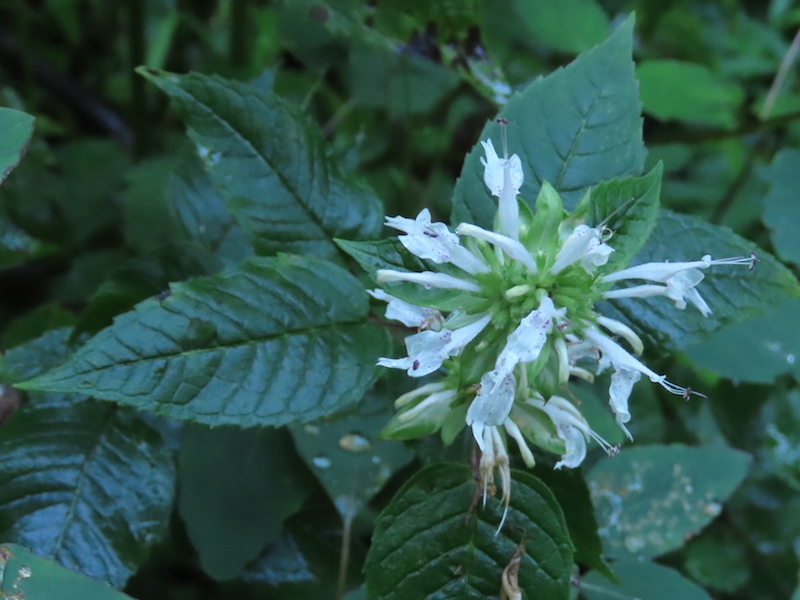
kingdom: Plantae
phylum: Tracheophyta
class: Magnoliopsida
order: Lamiales
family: Lamiaceae
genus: Monarda
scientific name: Monarda clinopodia
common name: Basil beebalm
